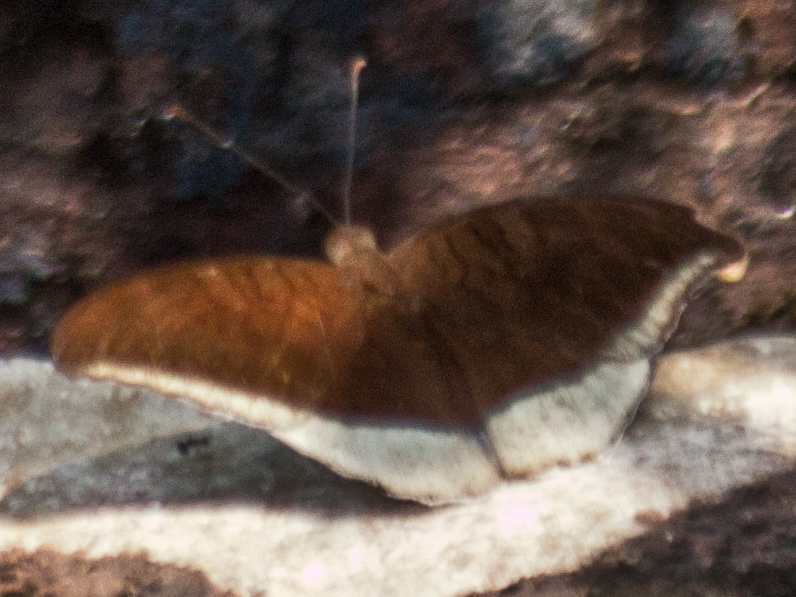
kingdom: Animalia
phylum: Arthropoda
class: Insecta
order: Lepidoptera
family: Nymphalidae
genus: Tanaecia
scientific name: Tanaecia lepidea
